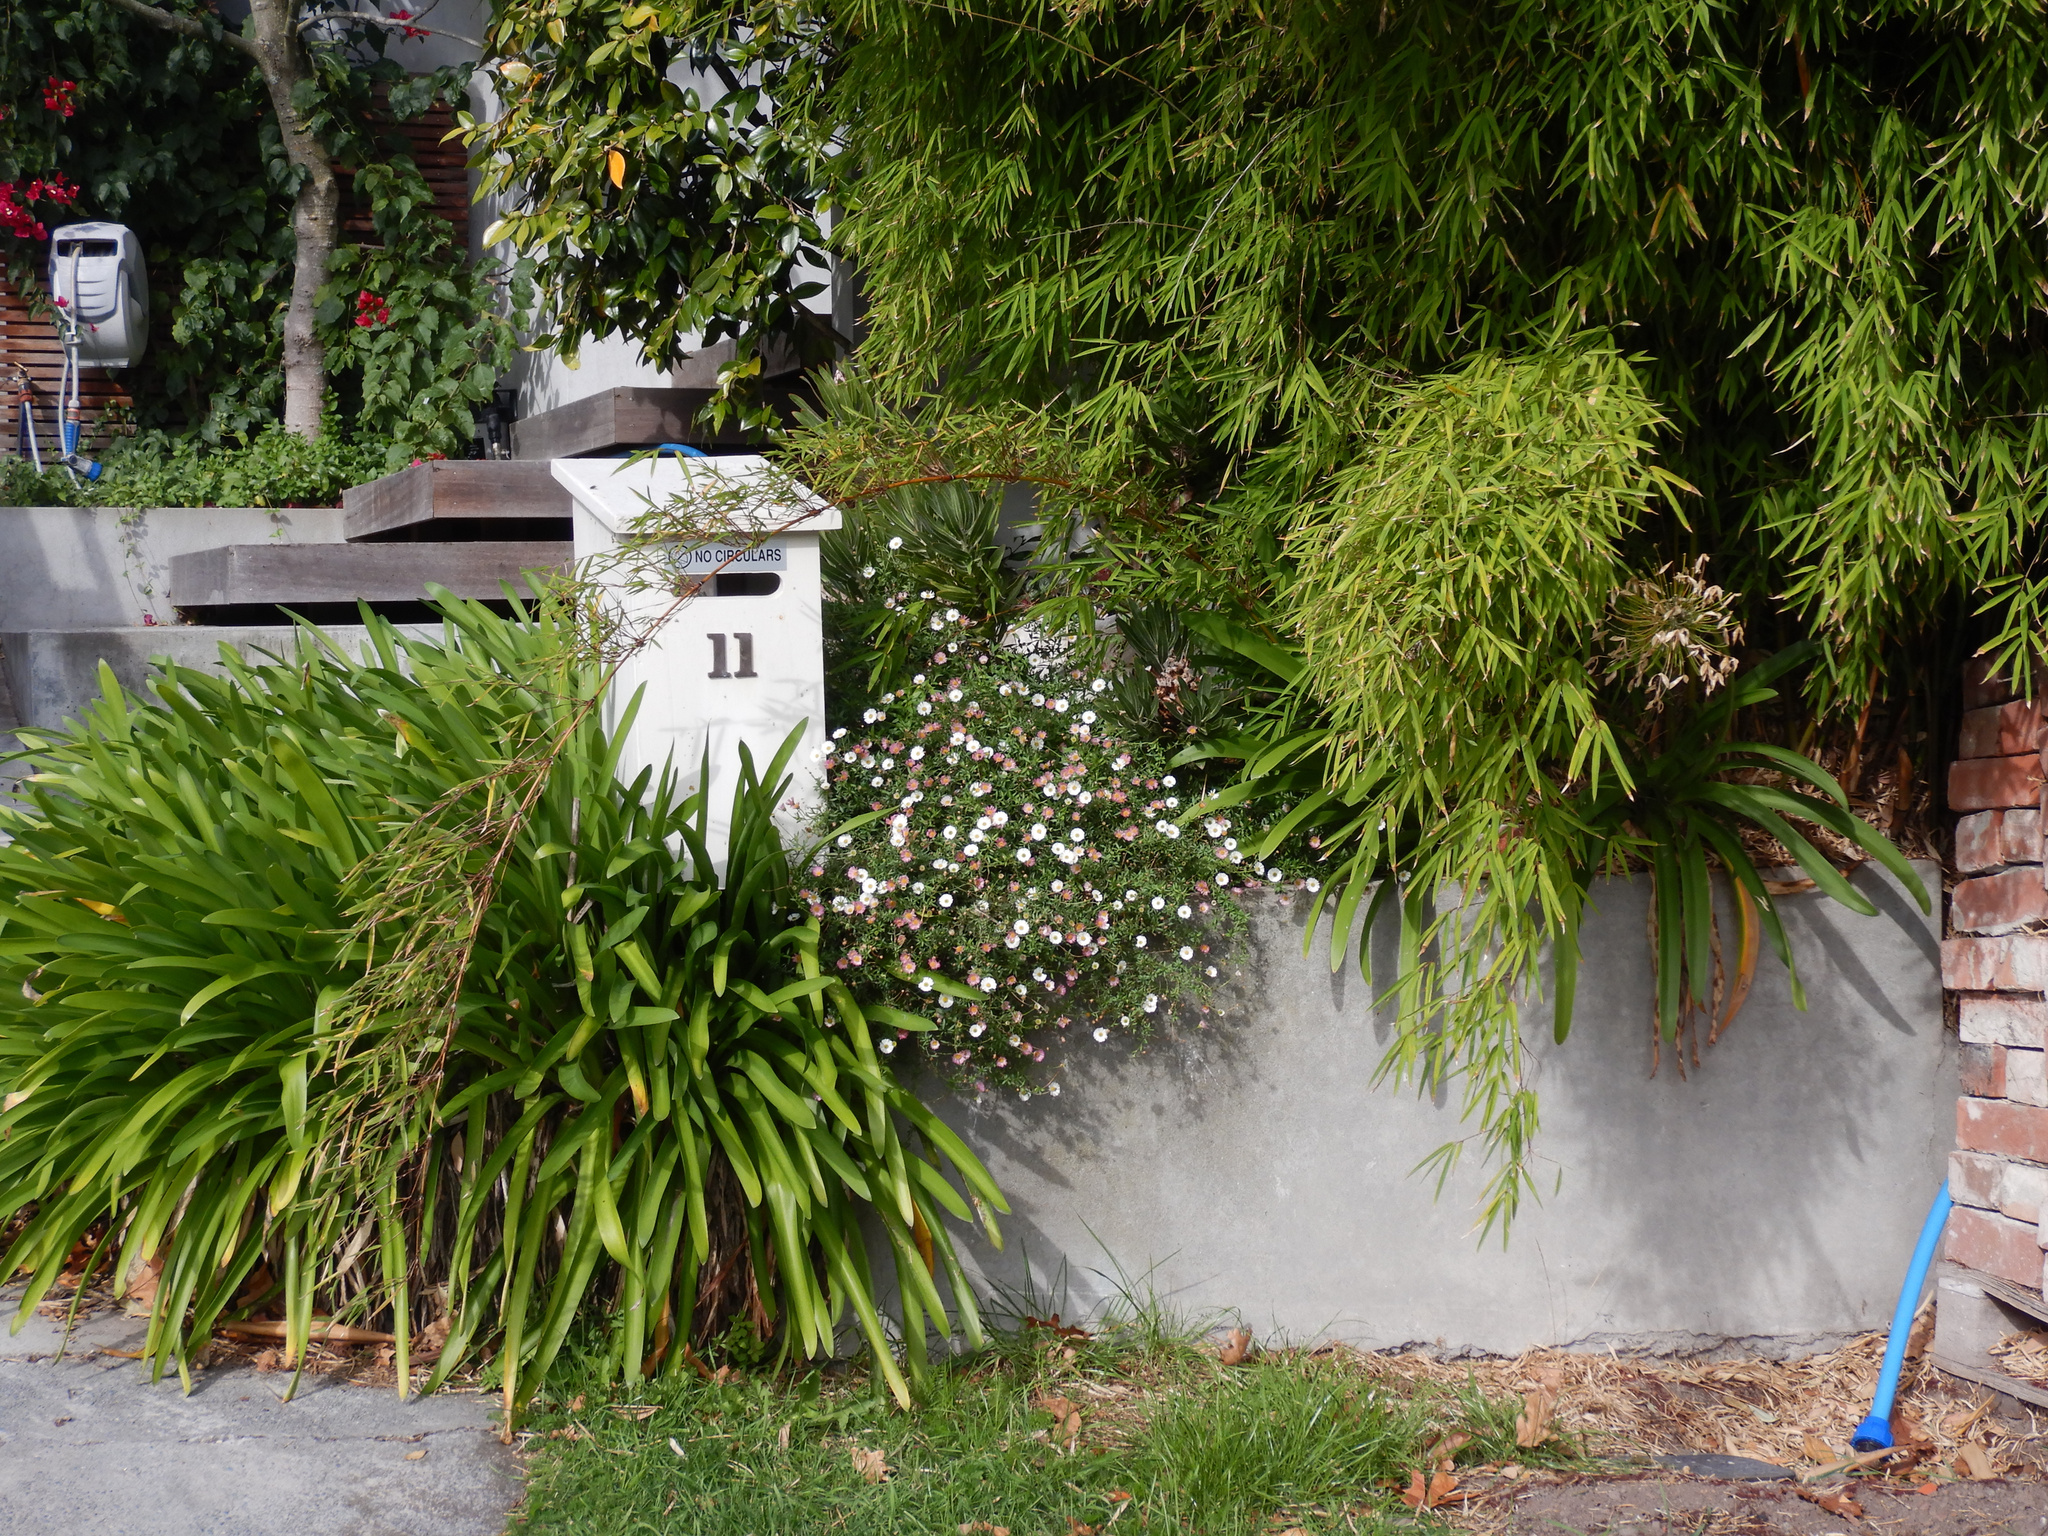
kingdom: Plantae
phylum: Tracheophyta
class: Magnoliopsida
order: Asterales
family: Asteraceae
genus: Erigeron
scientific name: Erigeron karvinskianus
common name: Mexican fleabane
